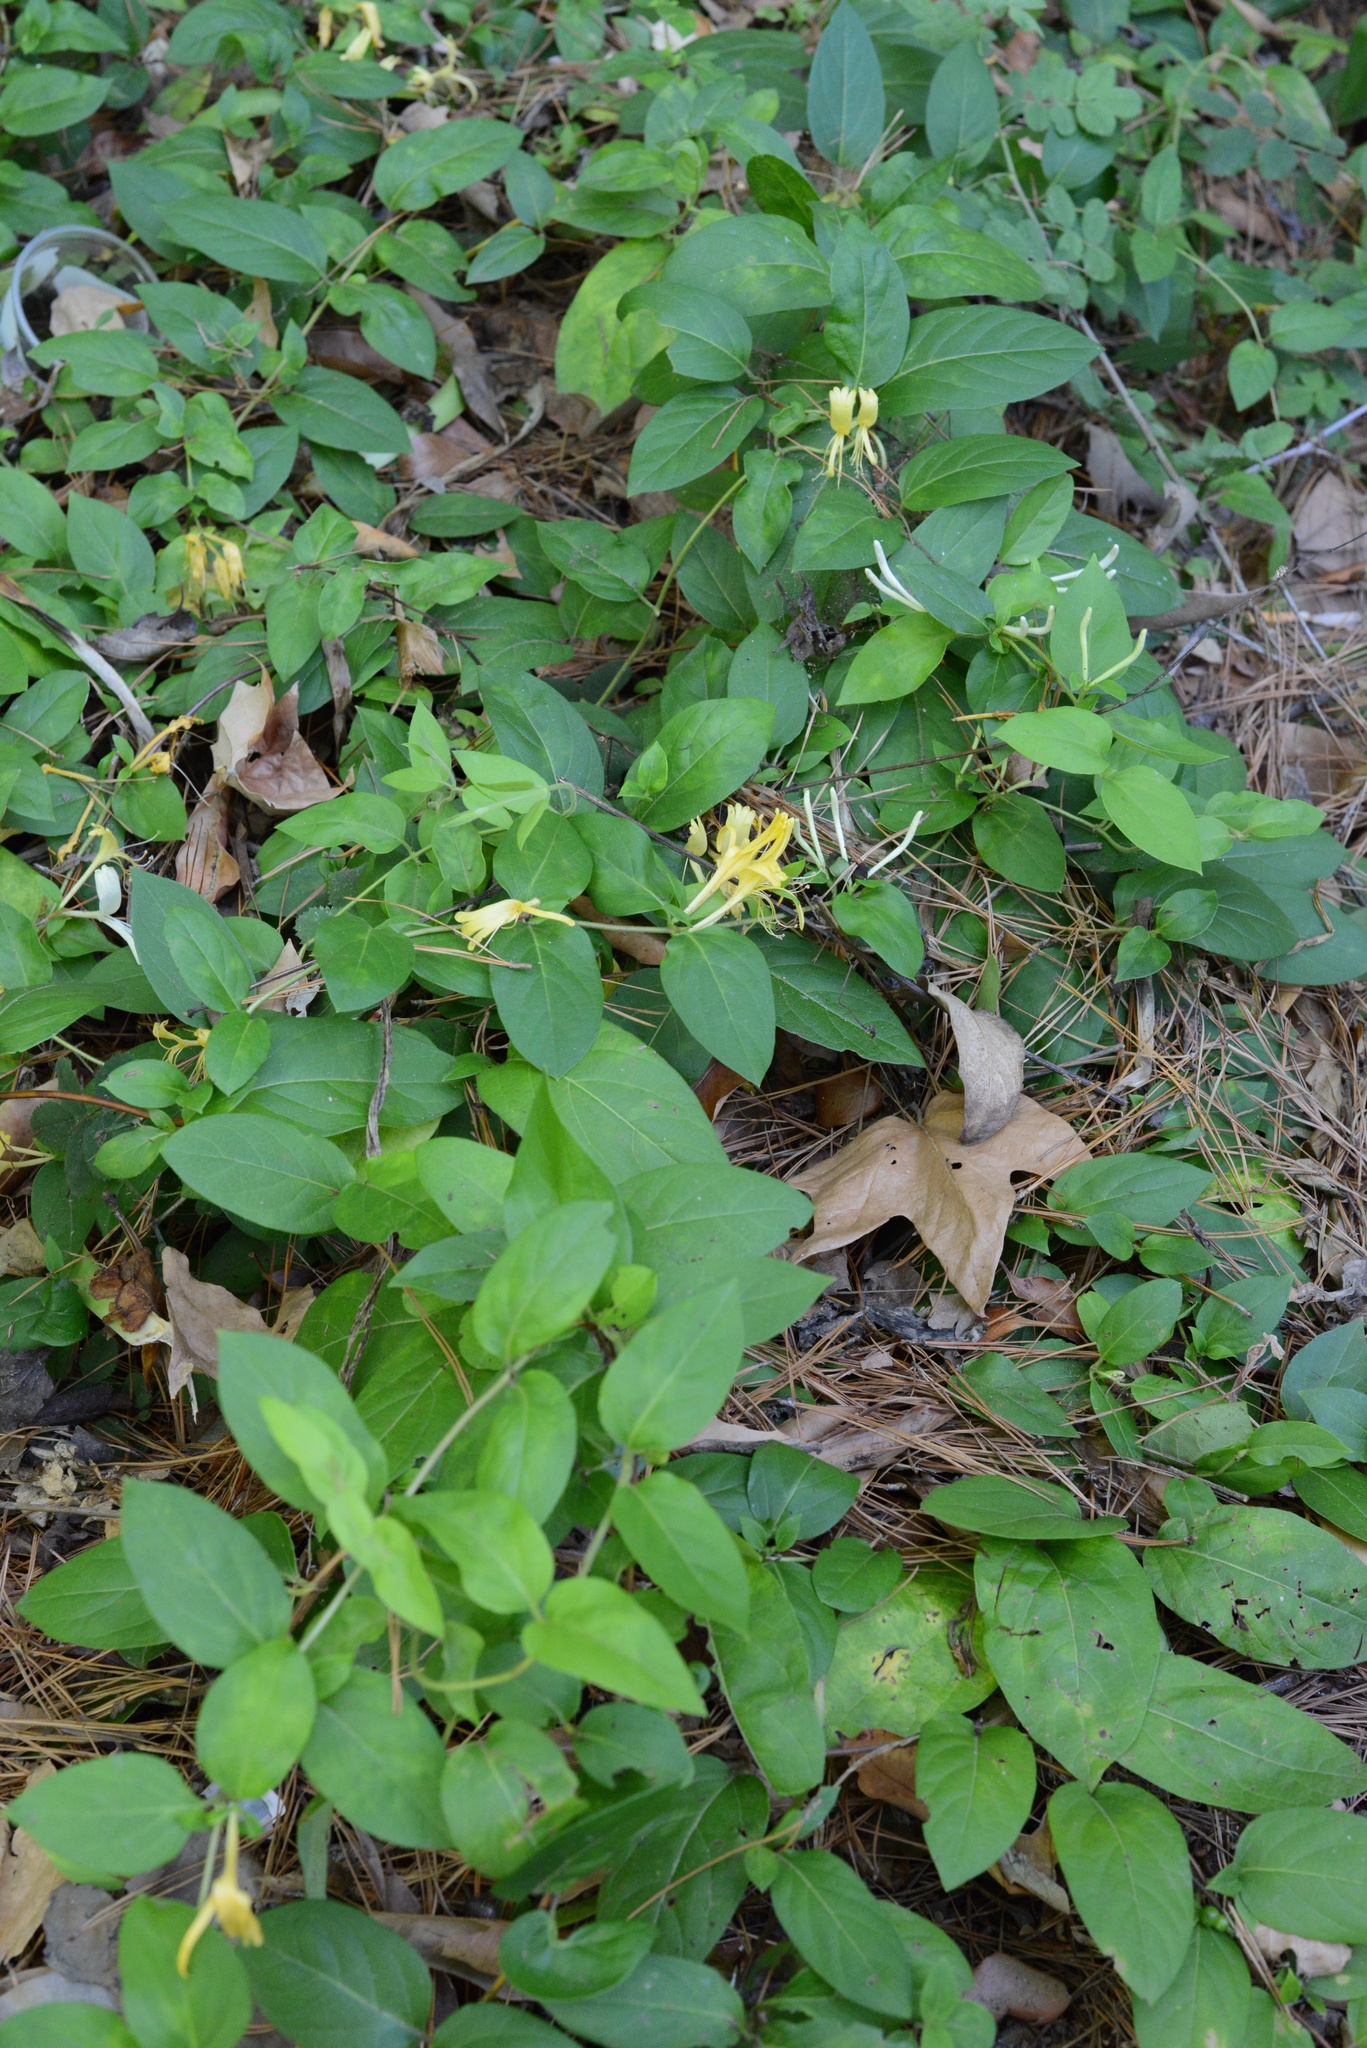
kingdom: Plantae
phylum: Tracheophyta
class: Magnoliopsida
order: Dipsacales
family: Caprifoliaceae
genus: Lonicera
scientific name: Lonicera japonica
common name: Japanese honeysuckle
